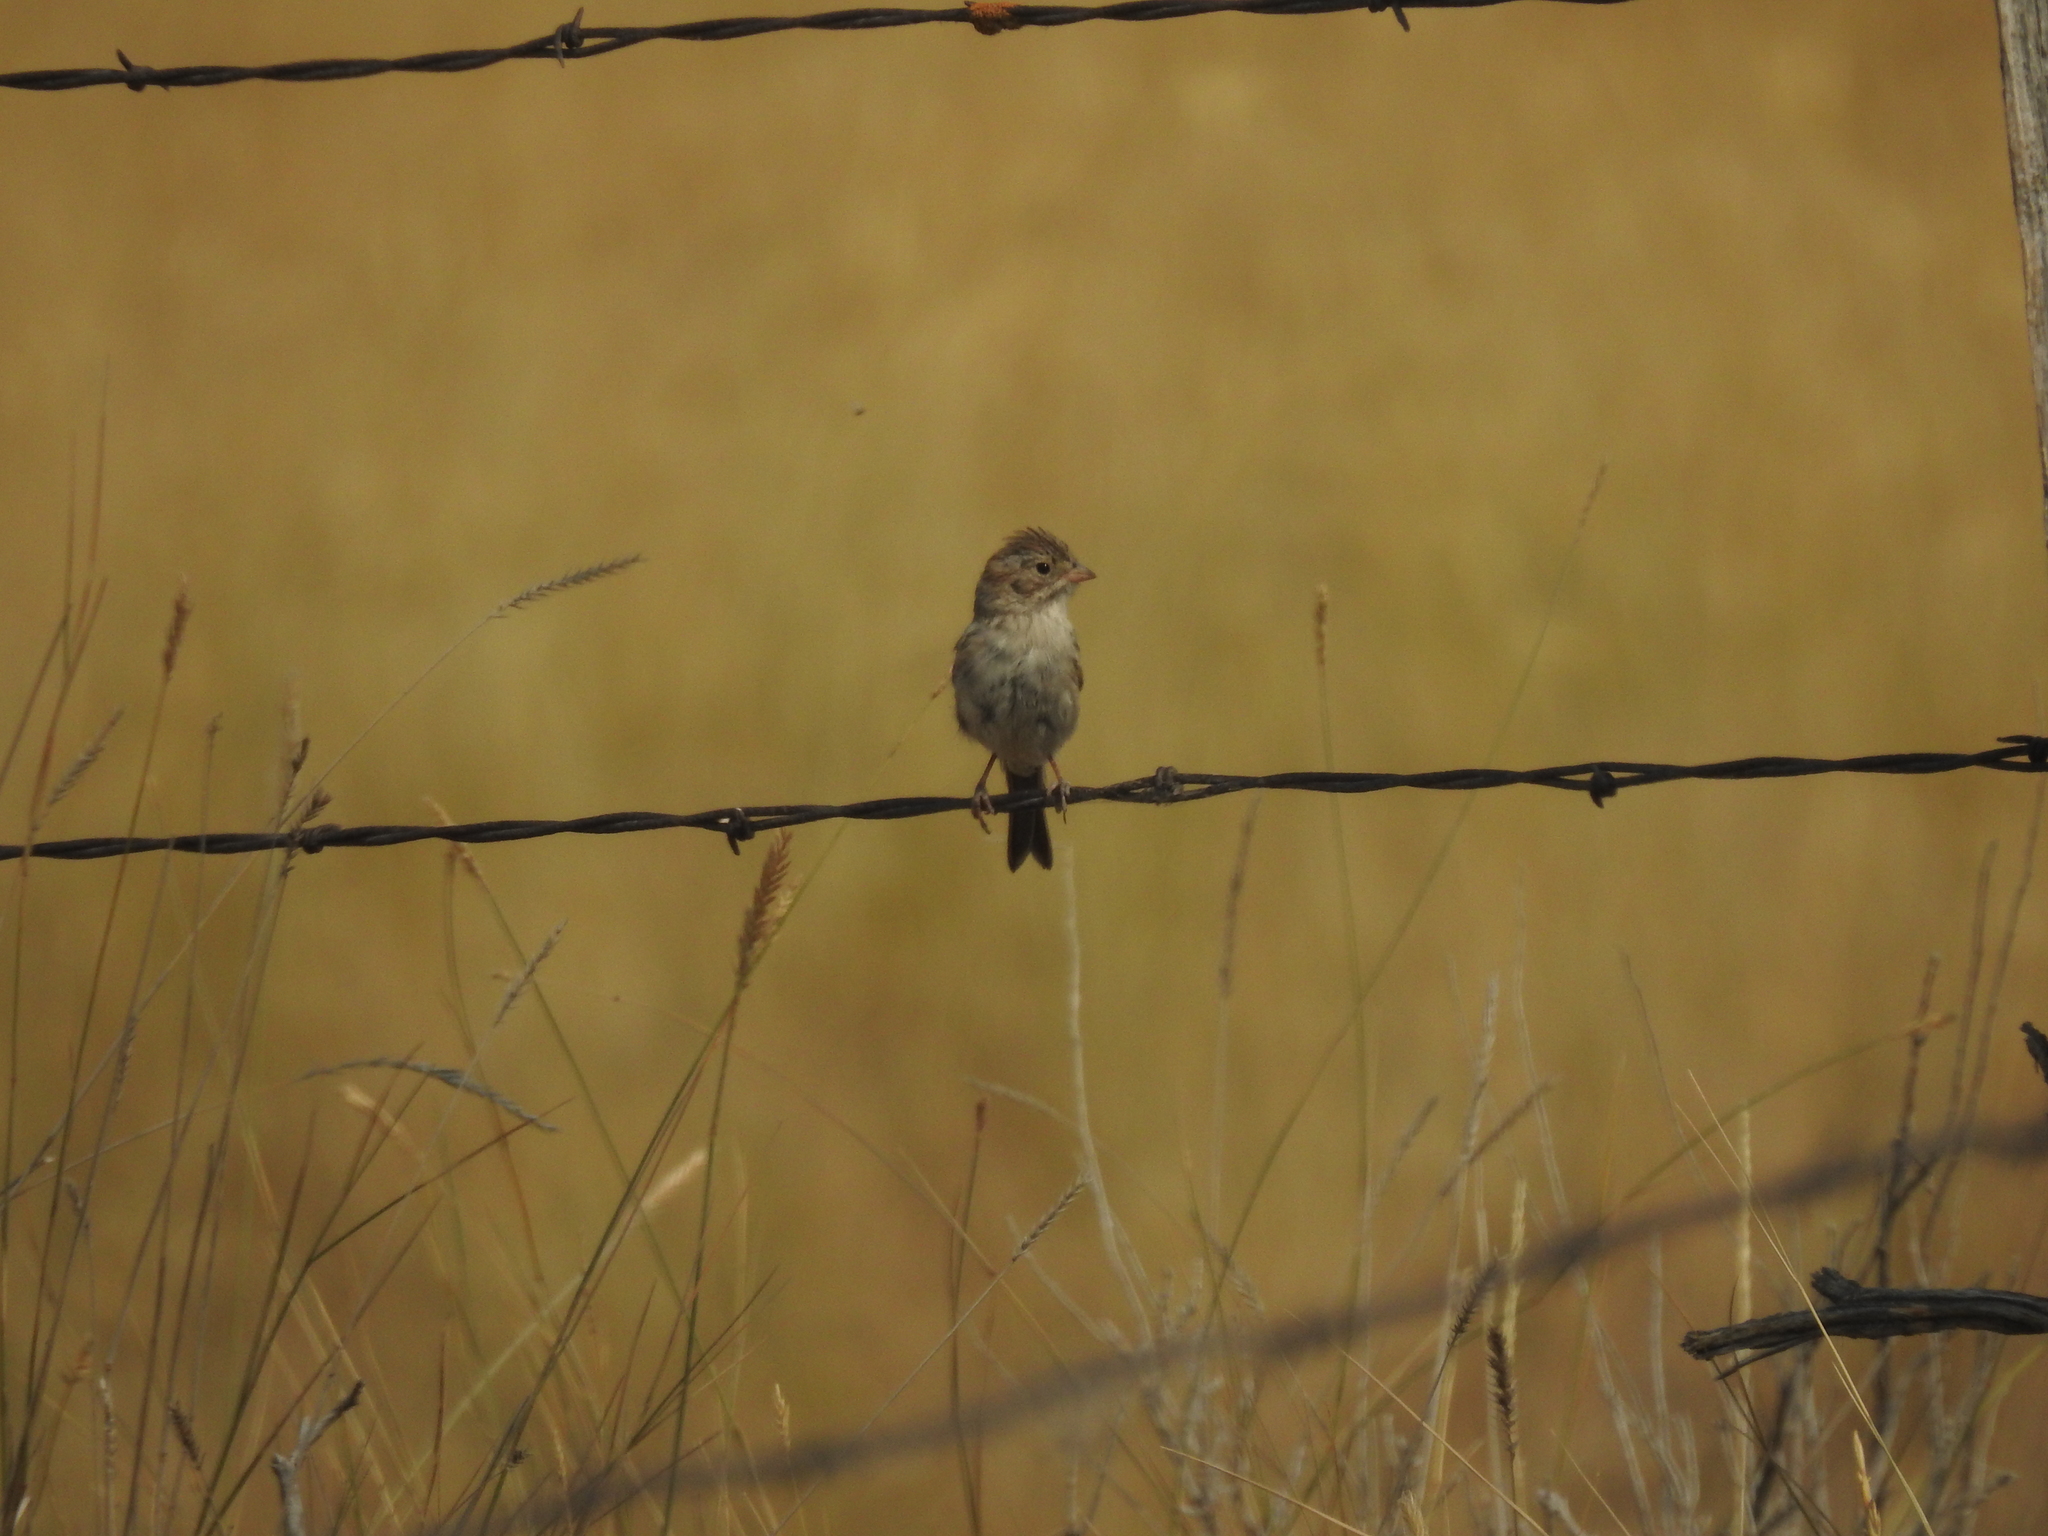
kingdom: Animalia
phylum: Chordata
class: Aves
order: Passeriformes
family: Passerellidae
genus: Spizella
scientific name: Spizella breweri
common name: Brewer's sparrow
